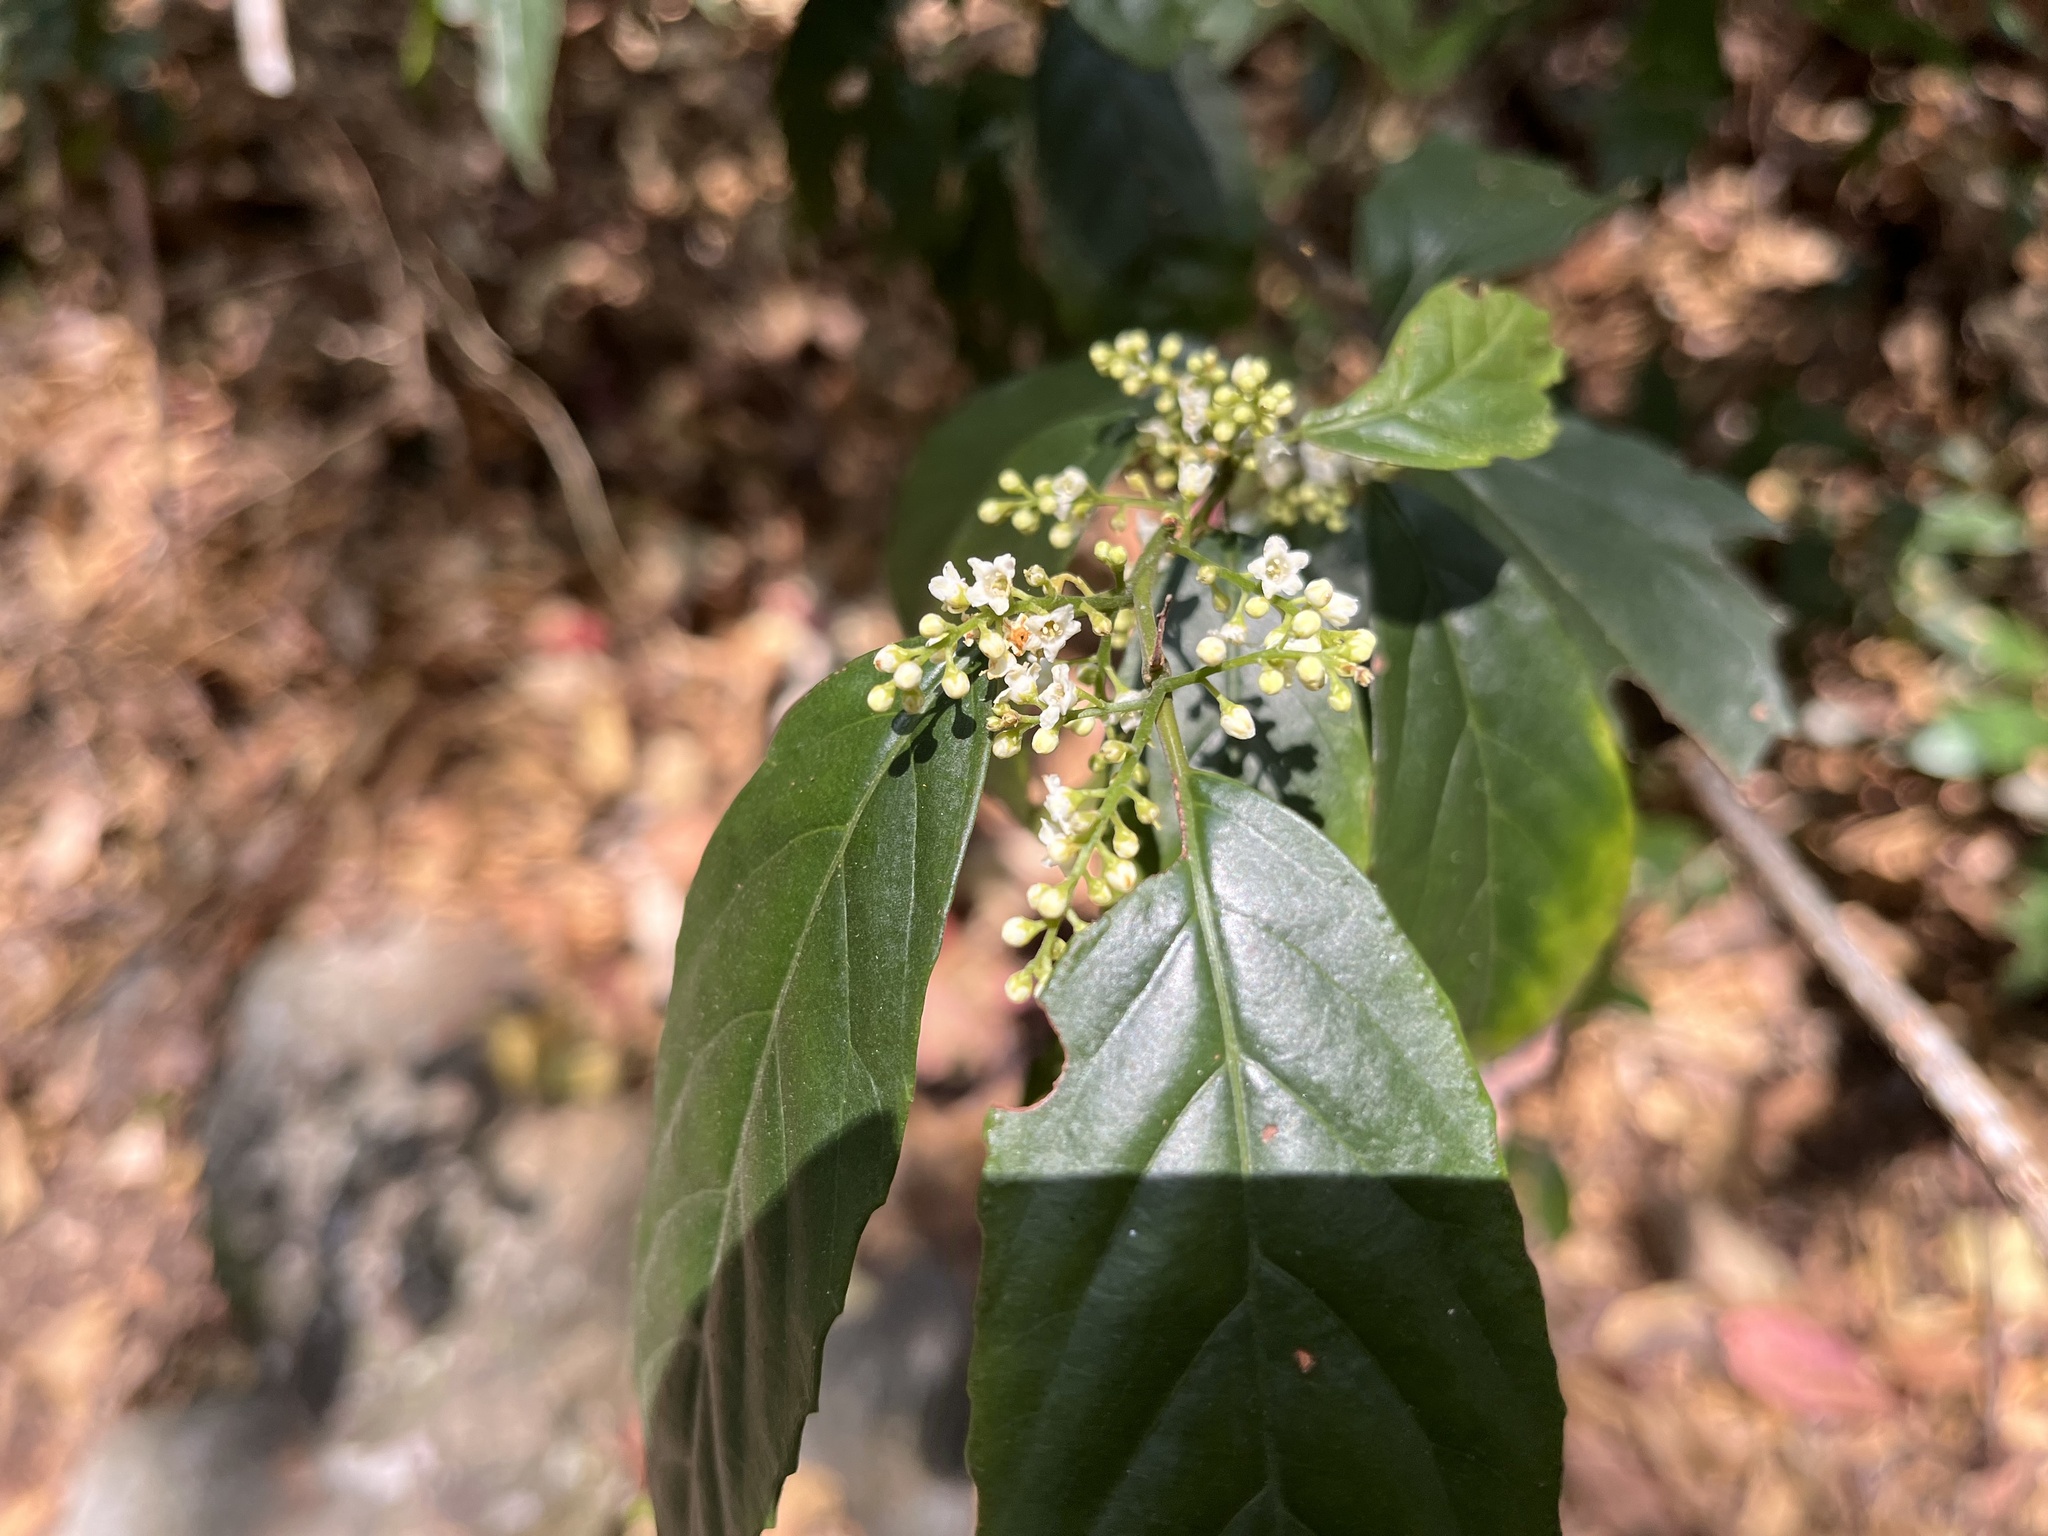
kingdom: Plantae
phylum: Tracheophyta
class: Magnoliopsida
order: Ericales
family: Primulaceae
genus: Maesa
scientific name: Maesa perlaria
